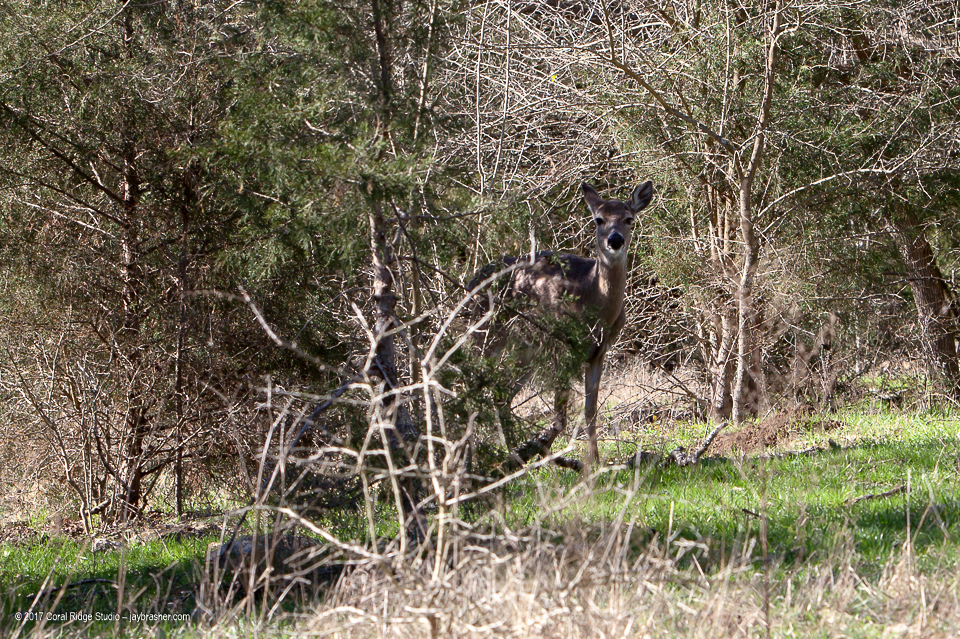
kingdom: Animalia
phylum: Chordata
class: Mammalia
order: Artiodactyla
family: Cervidae
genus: Odocoileus
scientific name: Odocoileus virginianus
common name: White-tailed deer
